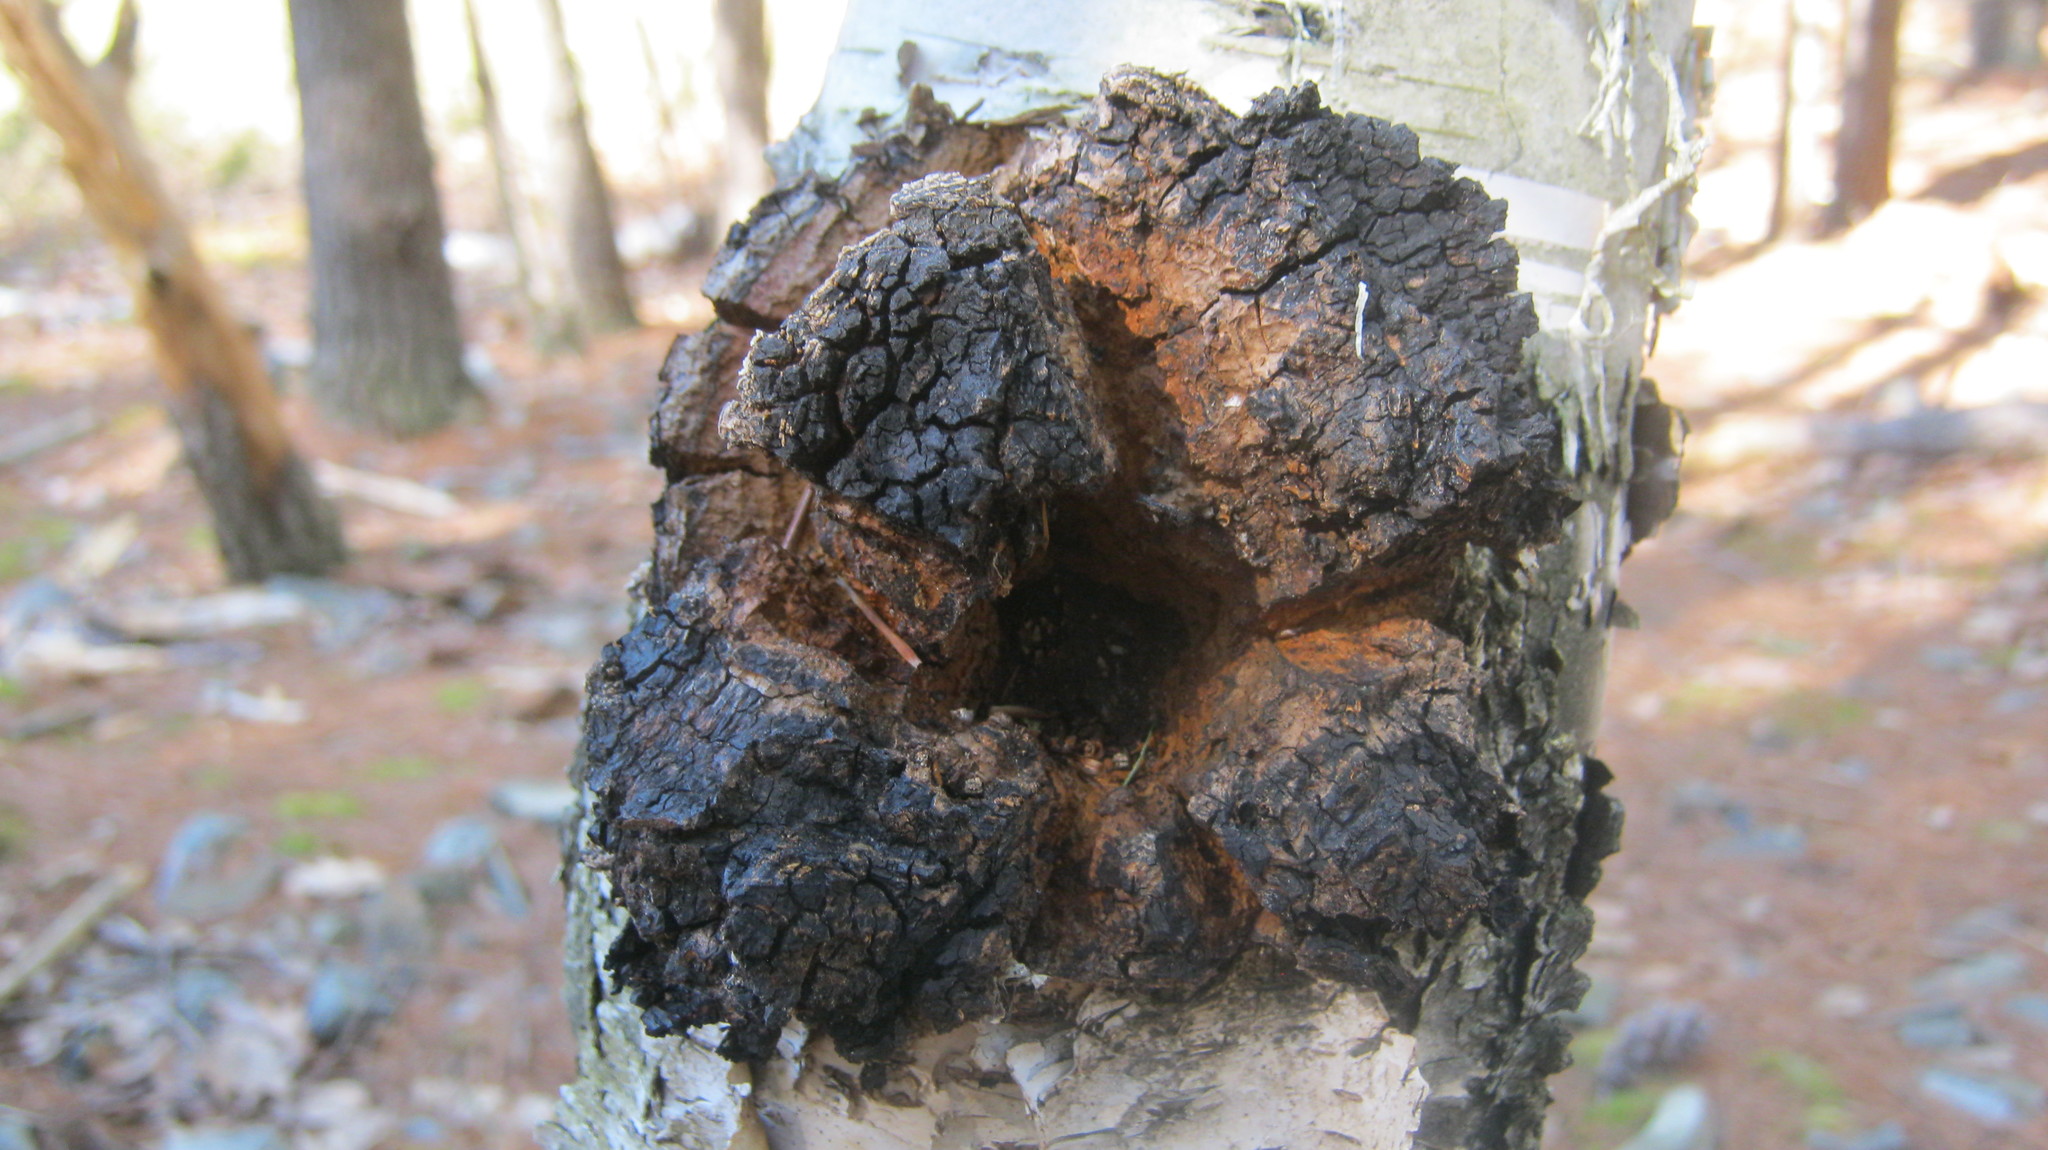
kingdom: Fungi
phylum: Basidiomycota
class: Agaricomycetes
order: Hymenochaetales
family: Hymenochaetaceae
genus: Inonotus
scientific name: Inonotus obliquus
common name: Chaga
